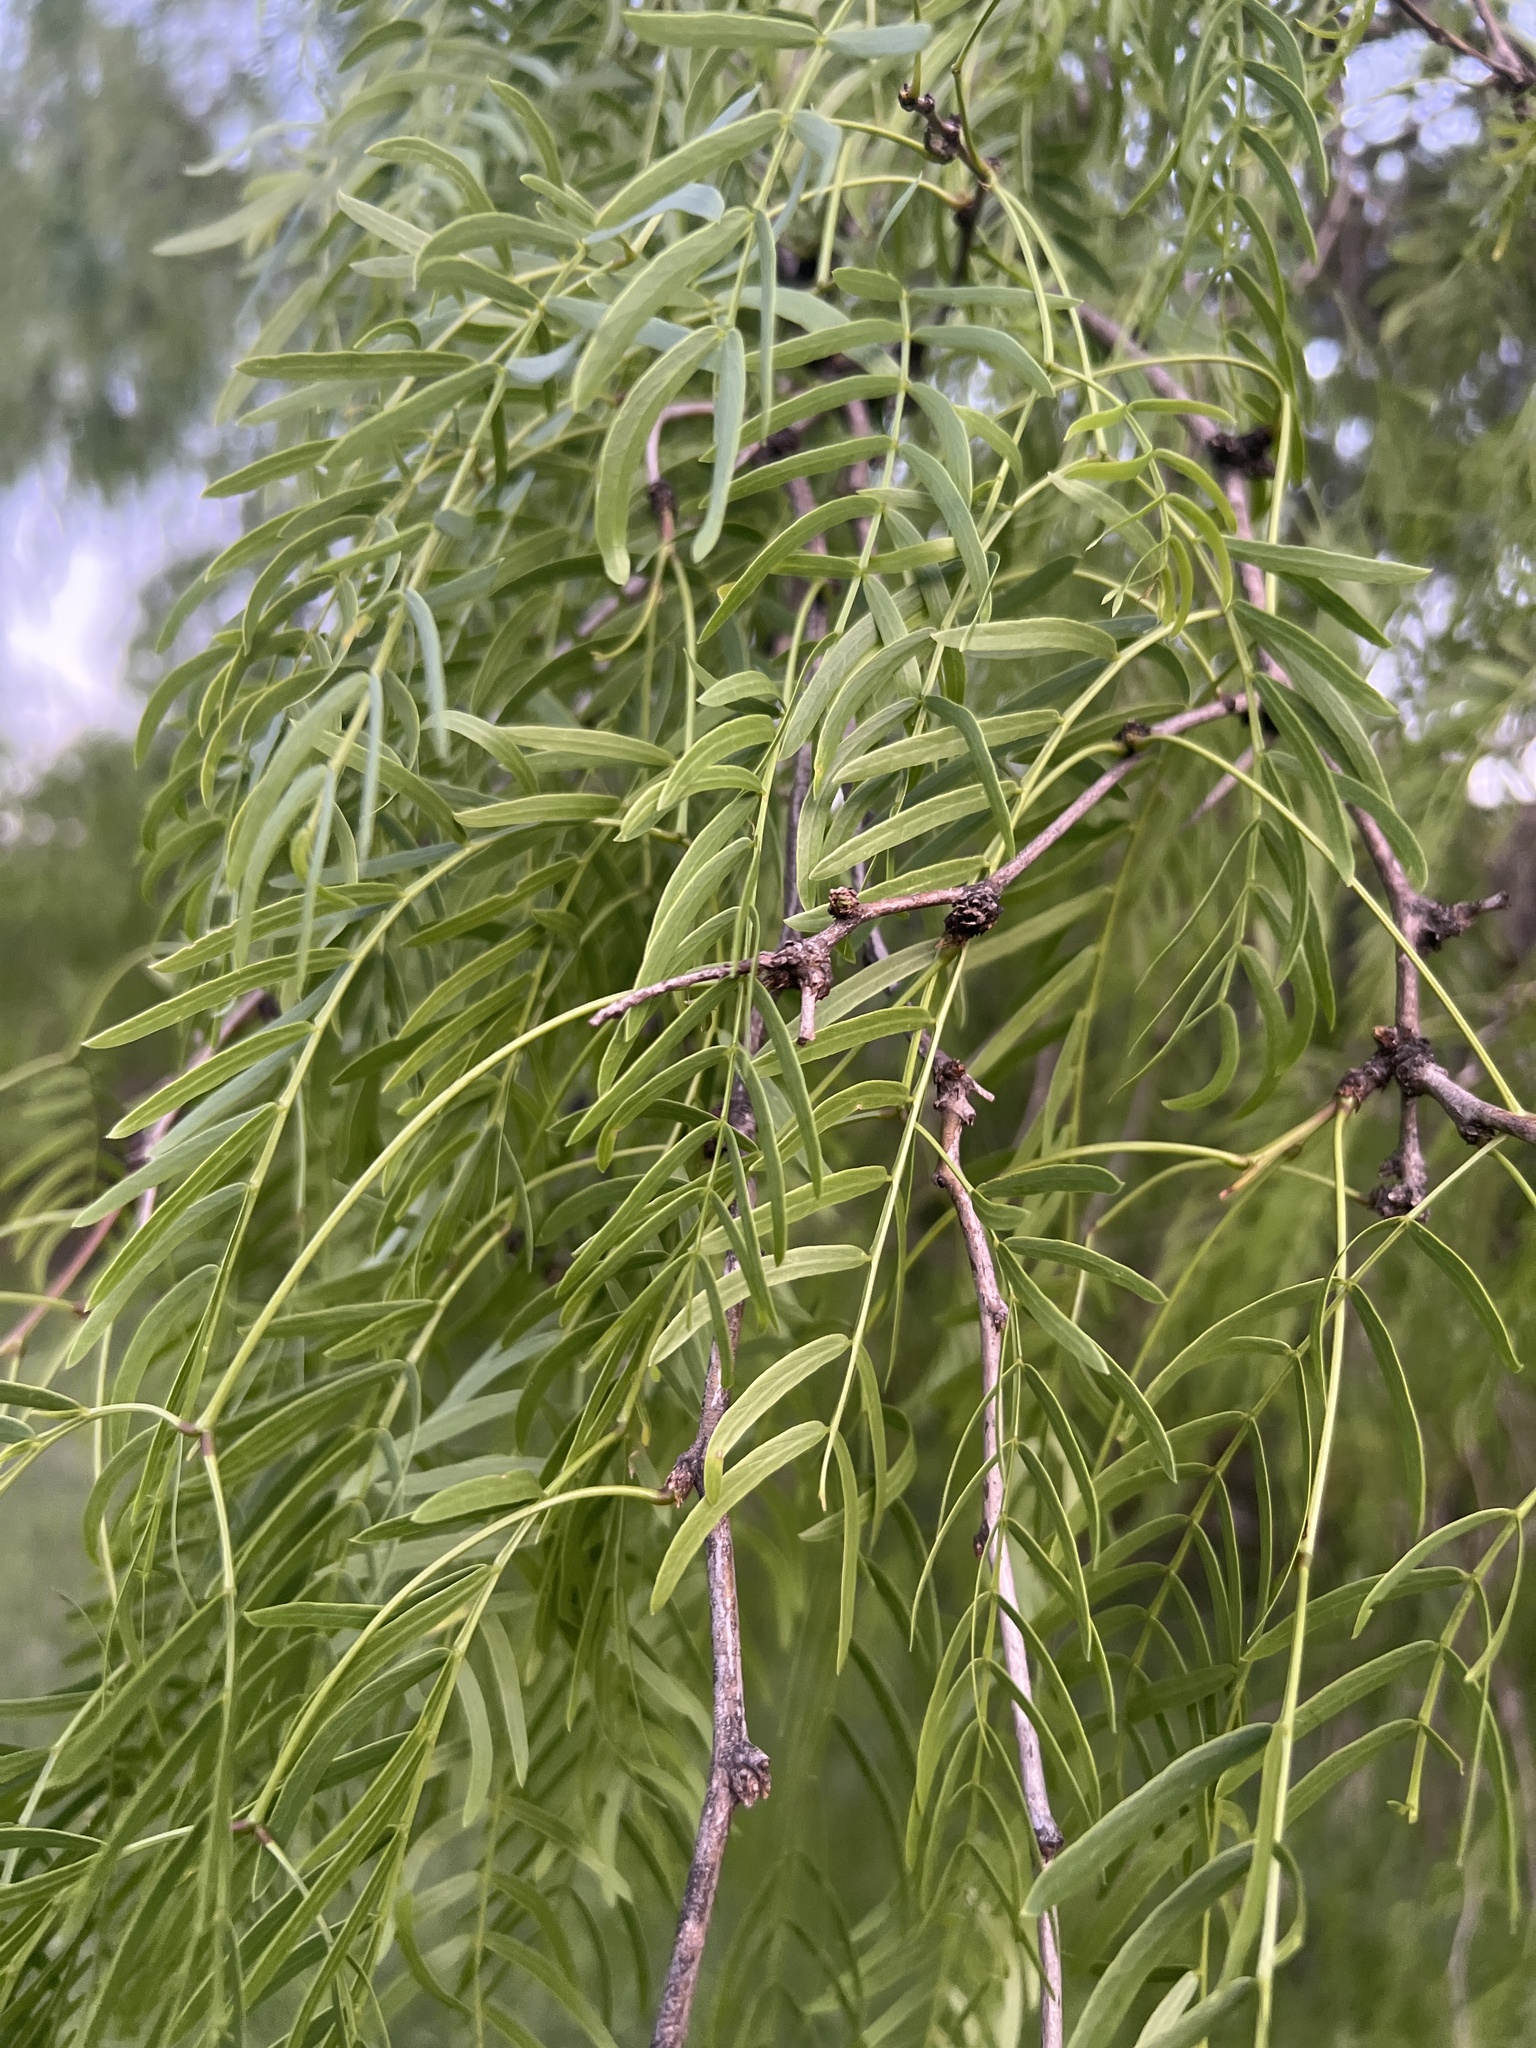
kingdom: Plantae
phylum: Tracheophyta
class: Magnoliopsida
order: Fabales
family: Fabaceae
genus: Prosopis
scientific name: Prosopis glandulosa
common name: Honey mesquite
